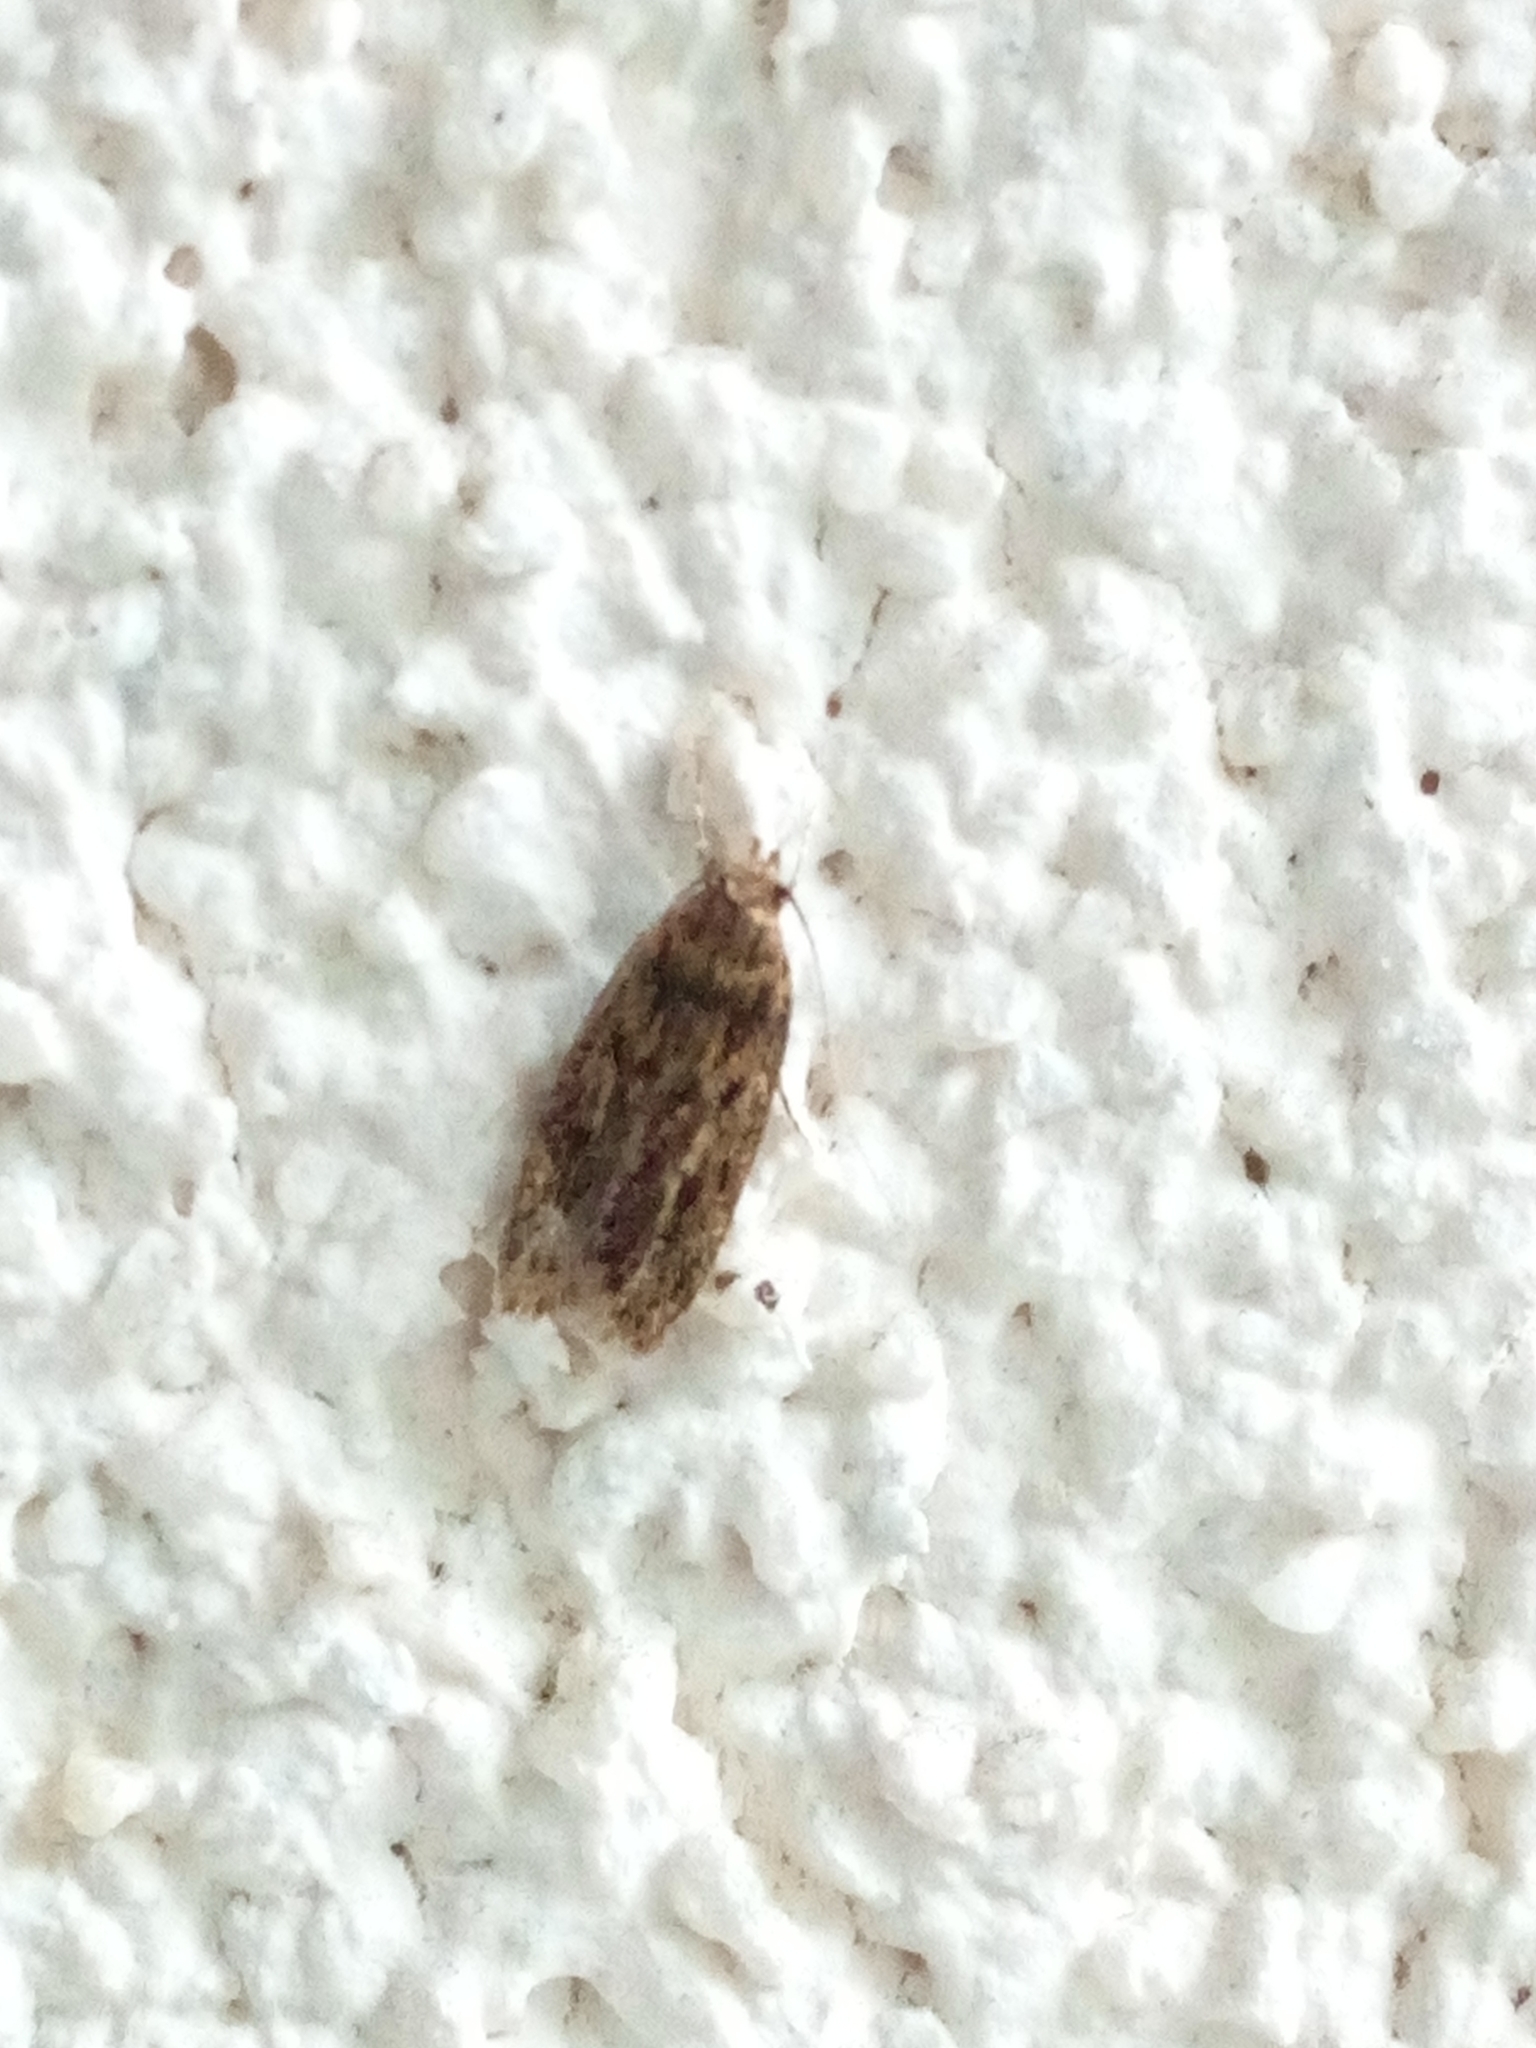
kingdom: Animalia
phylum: Arthropoda
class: Insecta
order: Lepidoptera
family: Oecophoridae
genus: Hofmannophila
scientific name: Hofmannophila pseudospretella
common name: Brown house moth
